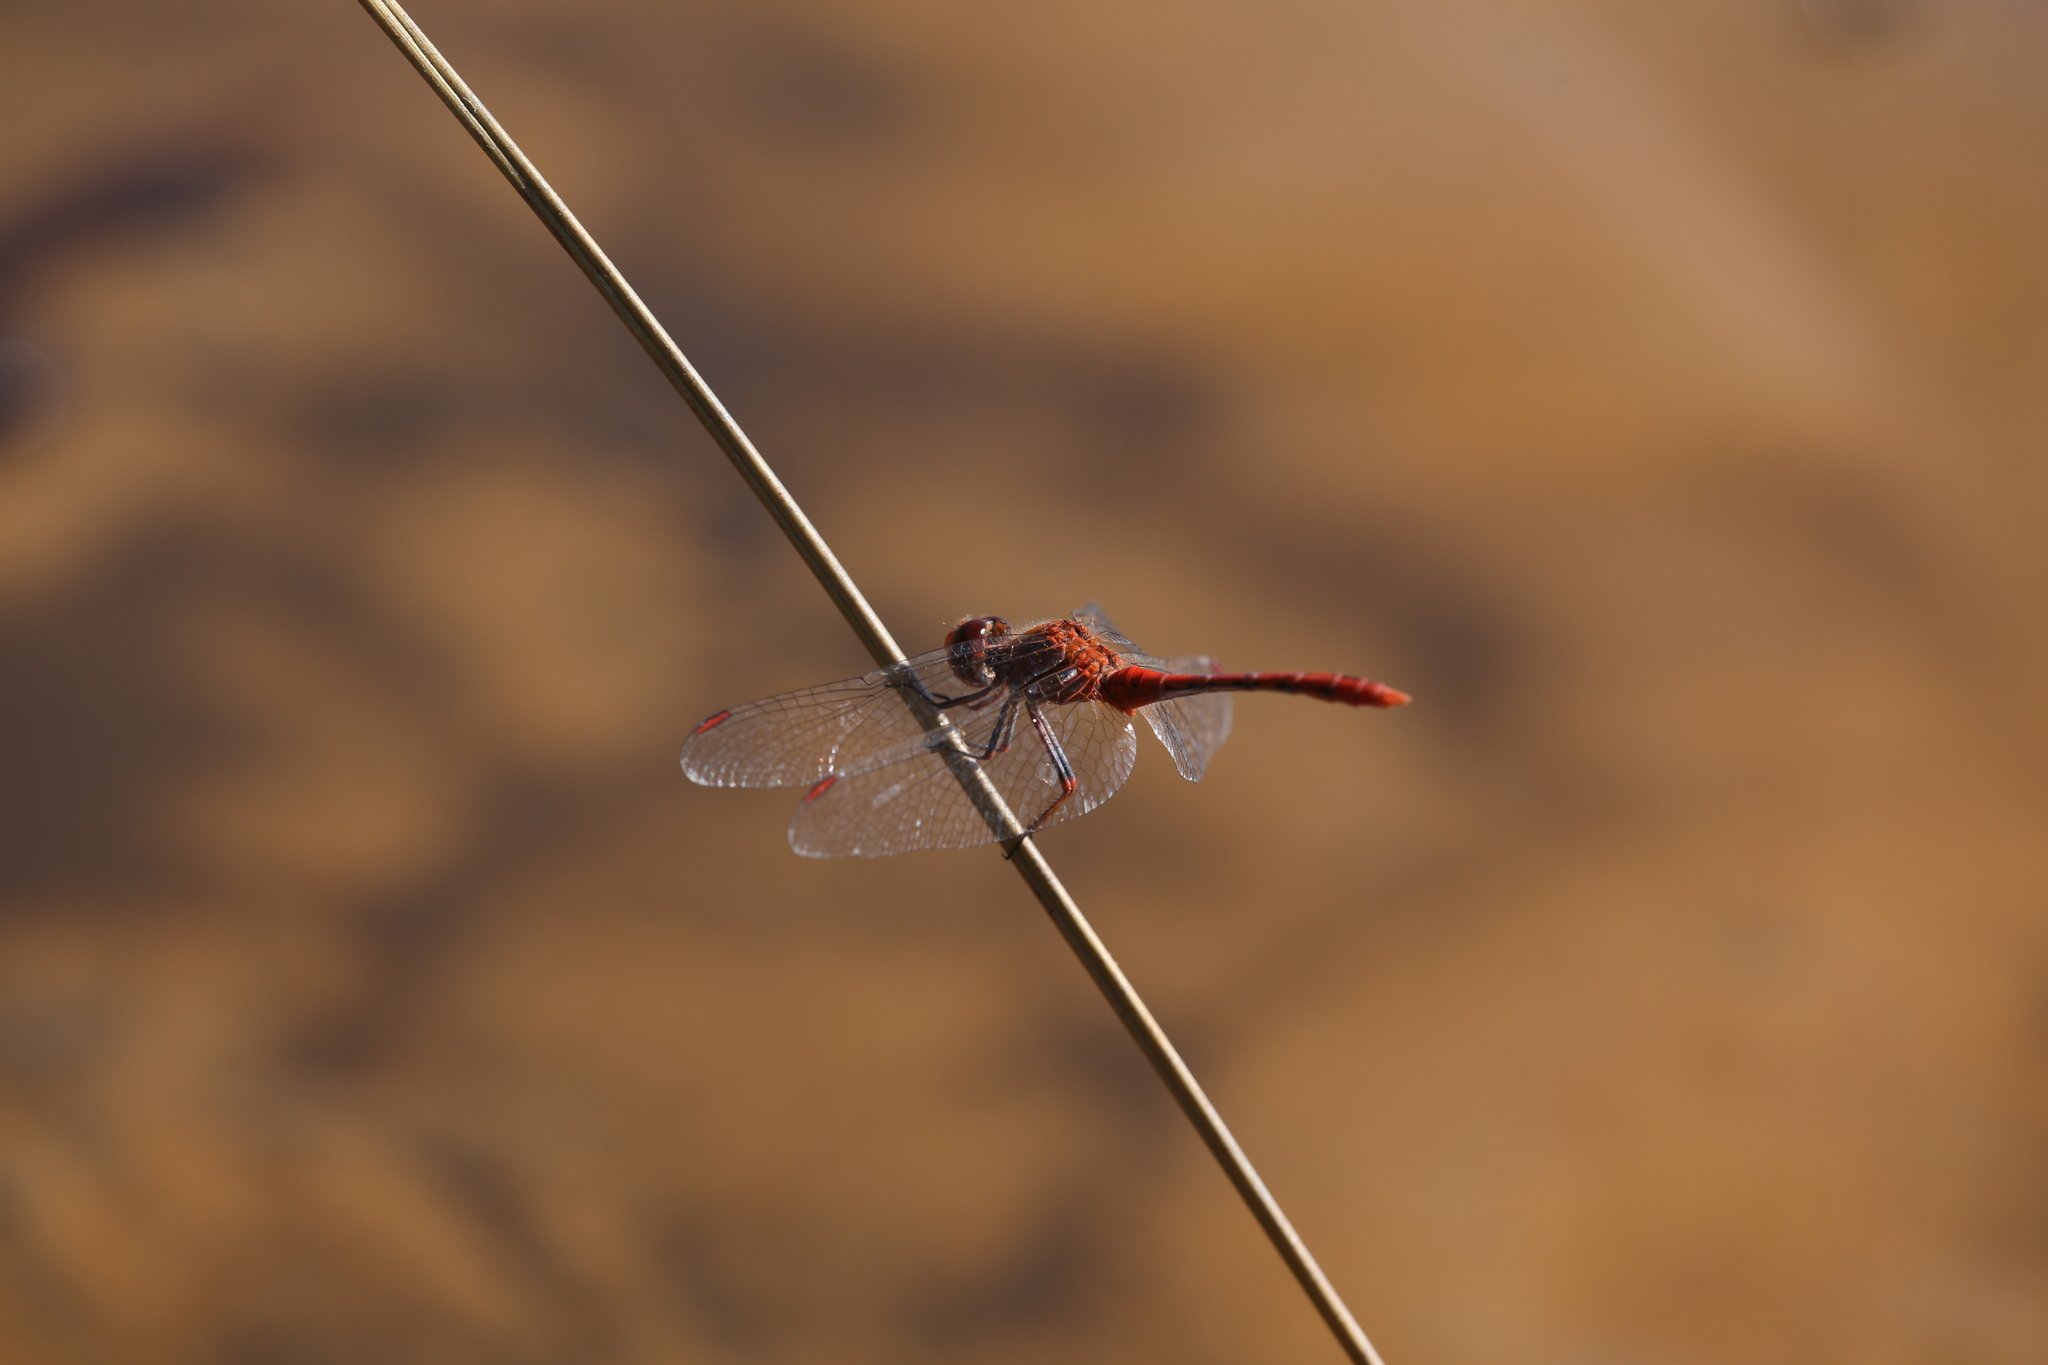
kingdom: Animalia
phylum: Arthropoda
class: Insecta
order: Odonata
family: Libellulidae
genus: Diplacodes
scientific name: Diplacodes bipunctata
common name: Red percher dragonfly
